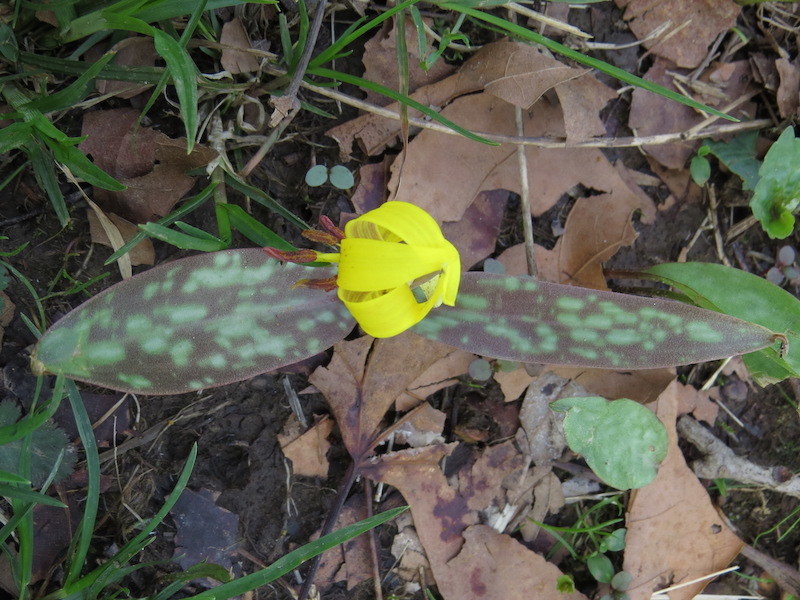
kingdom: Plantae
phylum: Tracheophyta
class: Liliopsida
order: Liliales
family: Liliaceae
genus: Erythronium
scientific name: Erythronium americanum
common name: Yellow adder's-tongue
